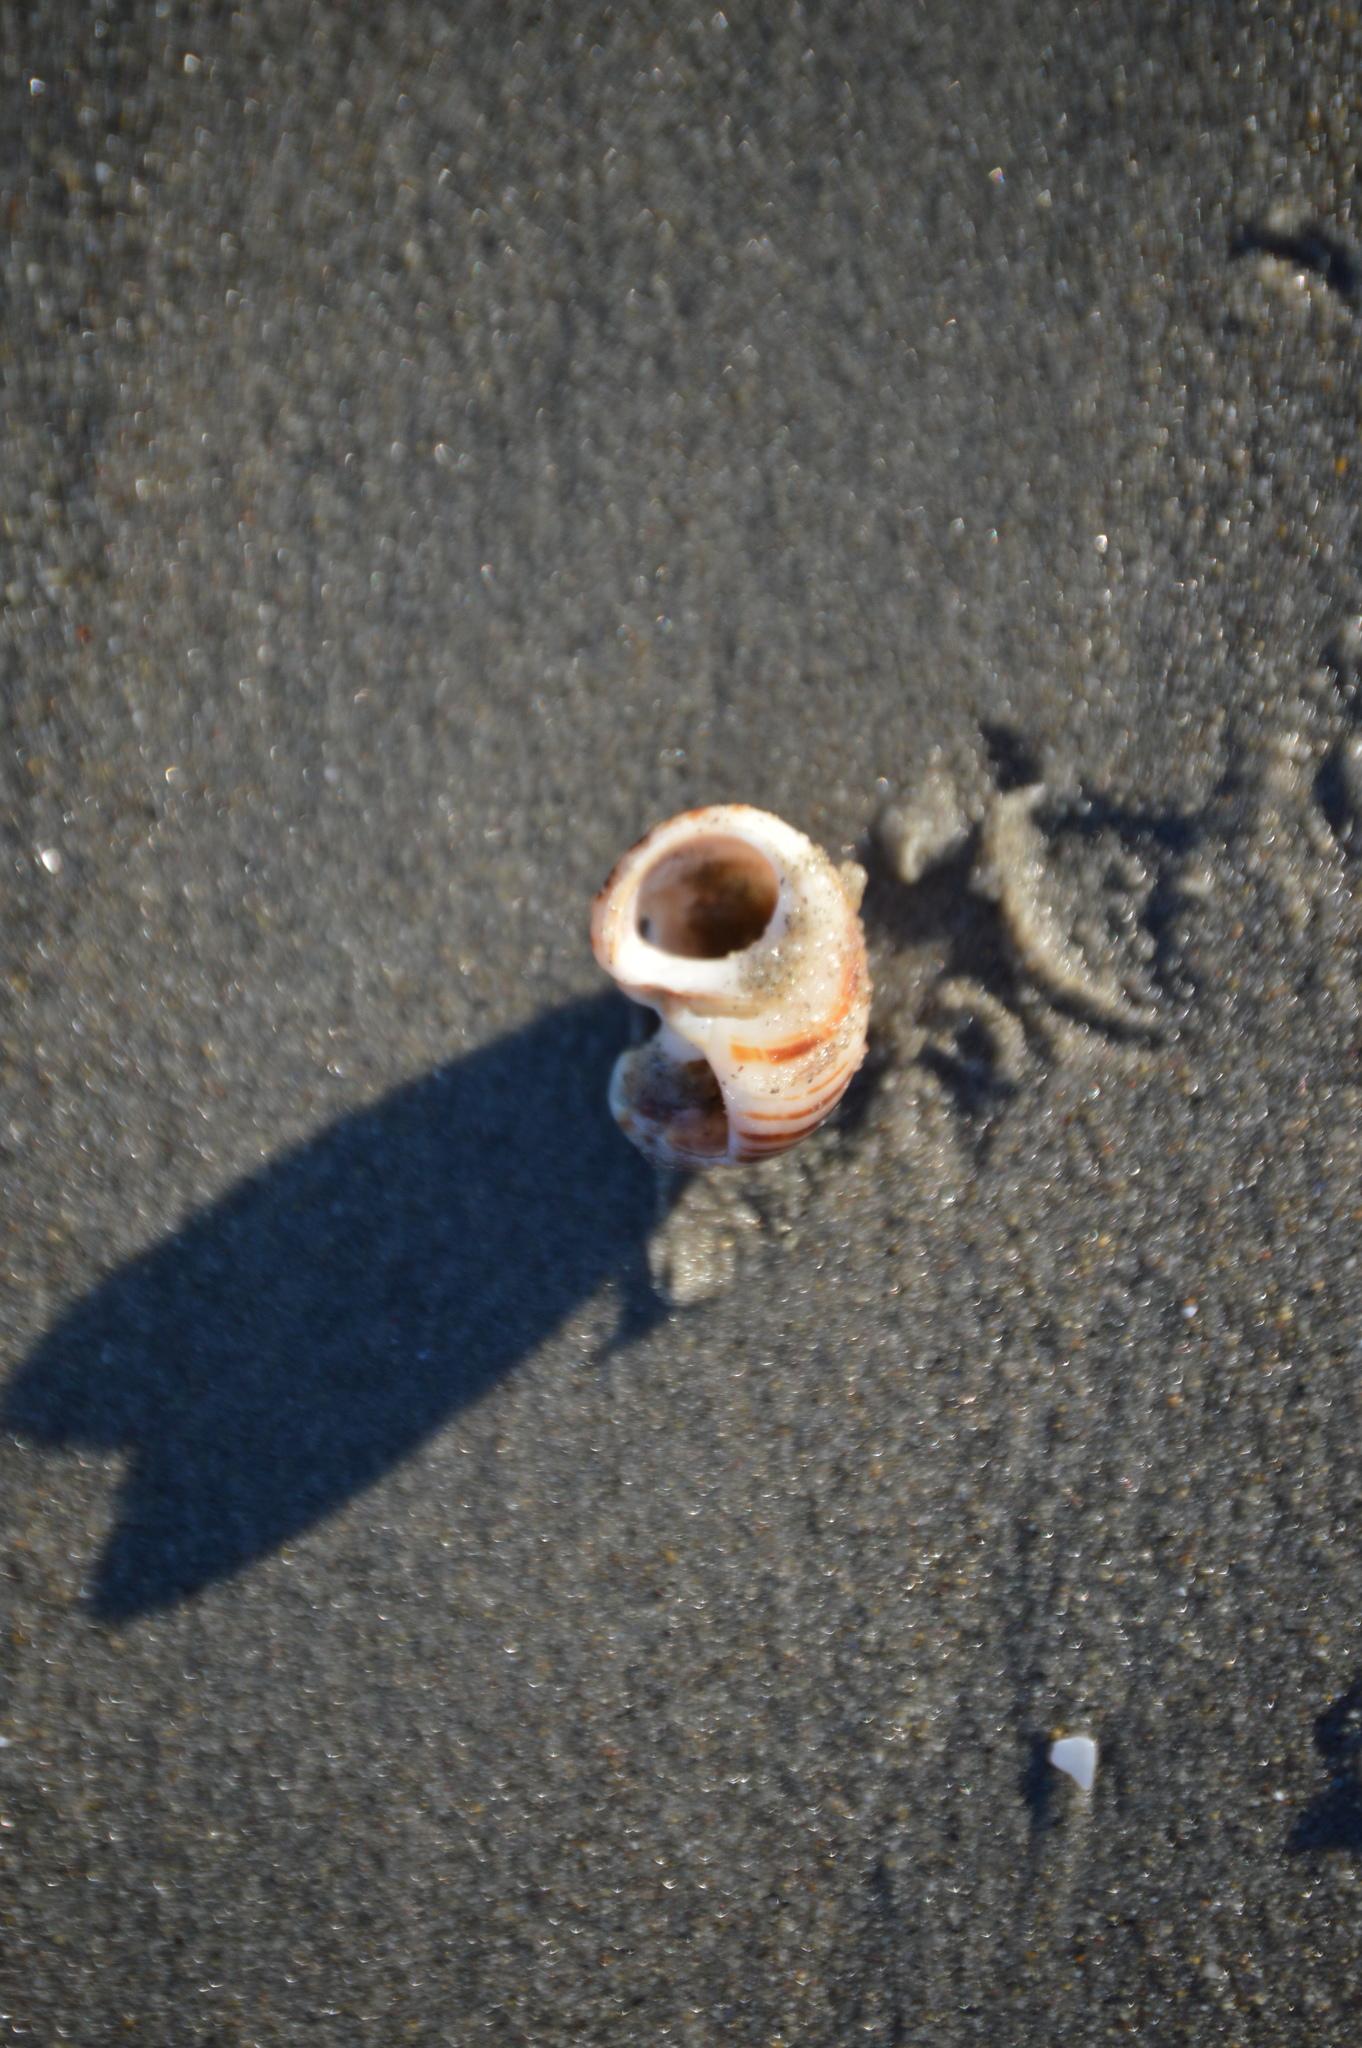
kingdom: Animalia
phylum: Mollusca
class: Gastropoda
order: Littorinimorpha
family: Littorinidae
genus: Littorina
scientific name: Littorina littorea
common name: Common periwinkle
